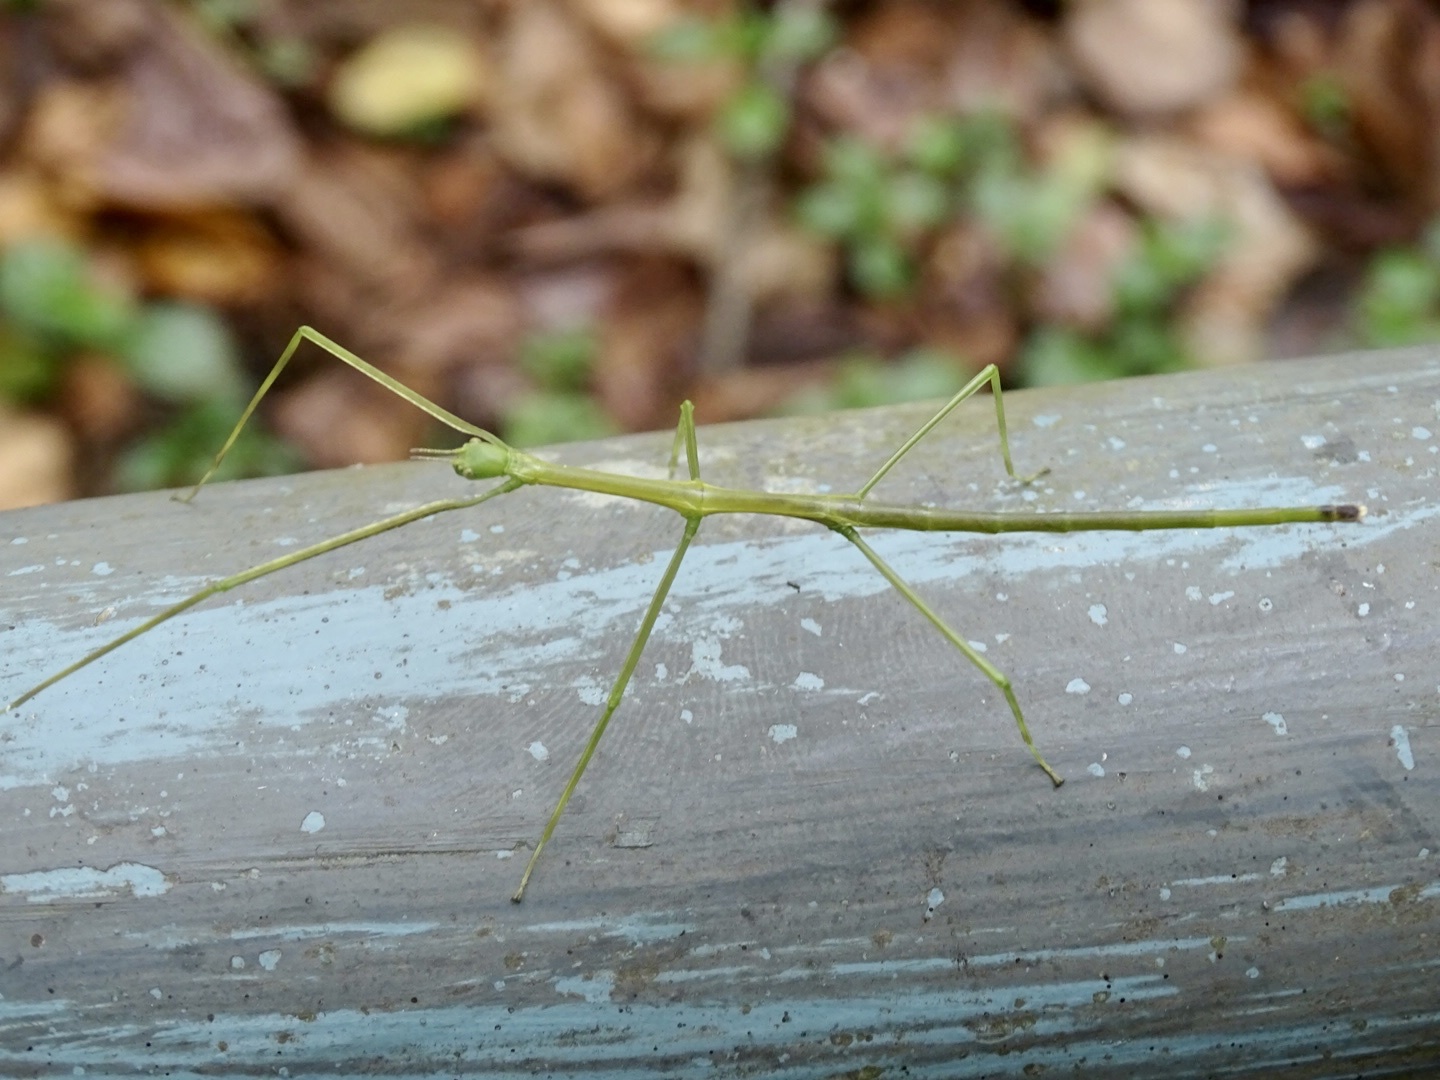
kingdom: Animalia
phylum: Arthropoda
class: Insecta
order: Phasmida
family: Phasmatidae
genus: Ramulus
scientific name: Ramulus caii
